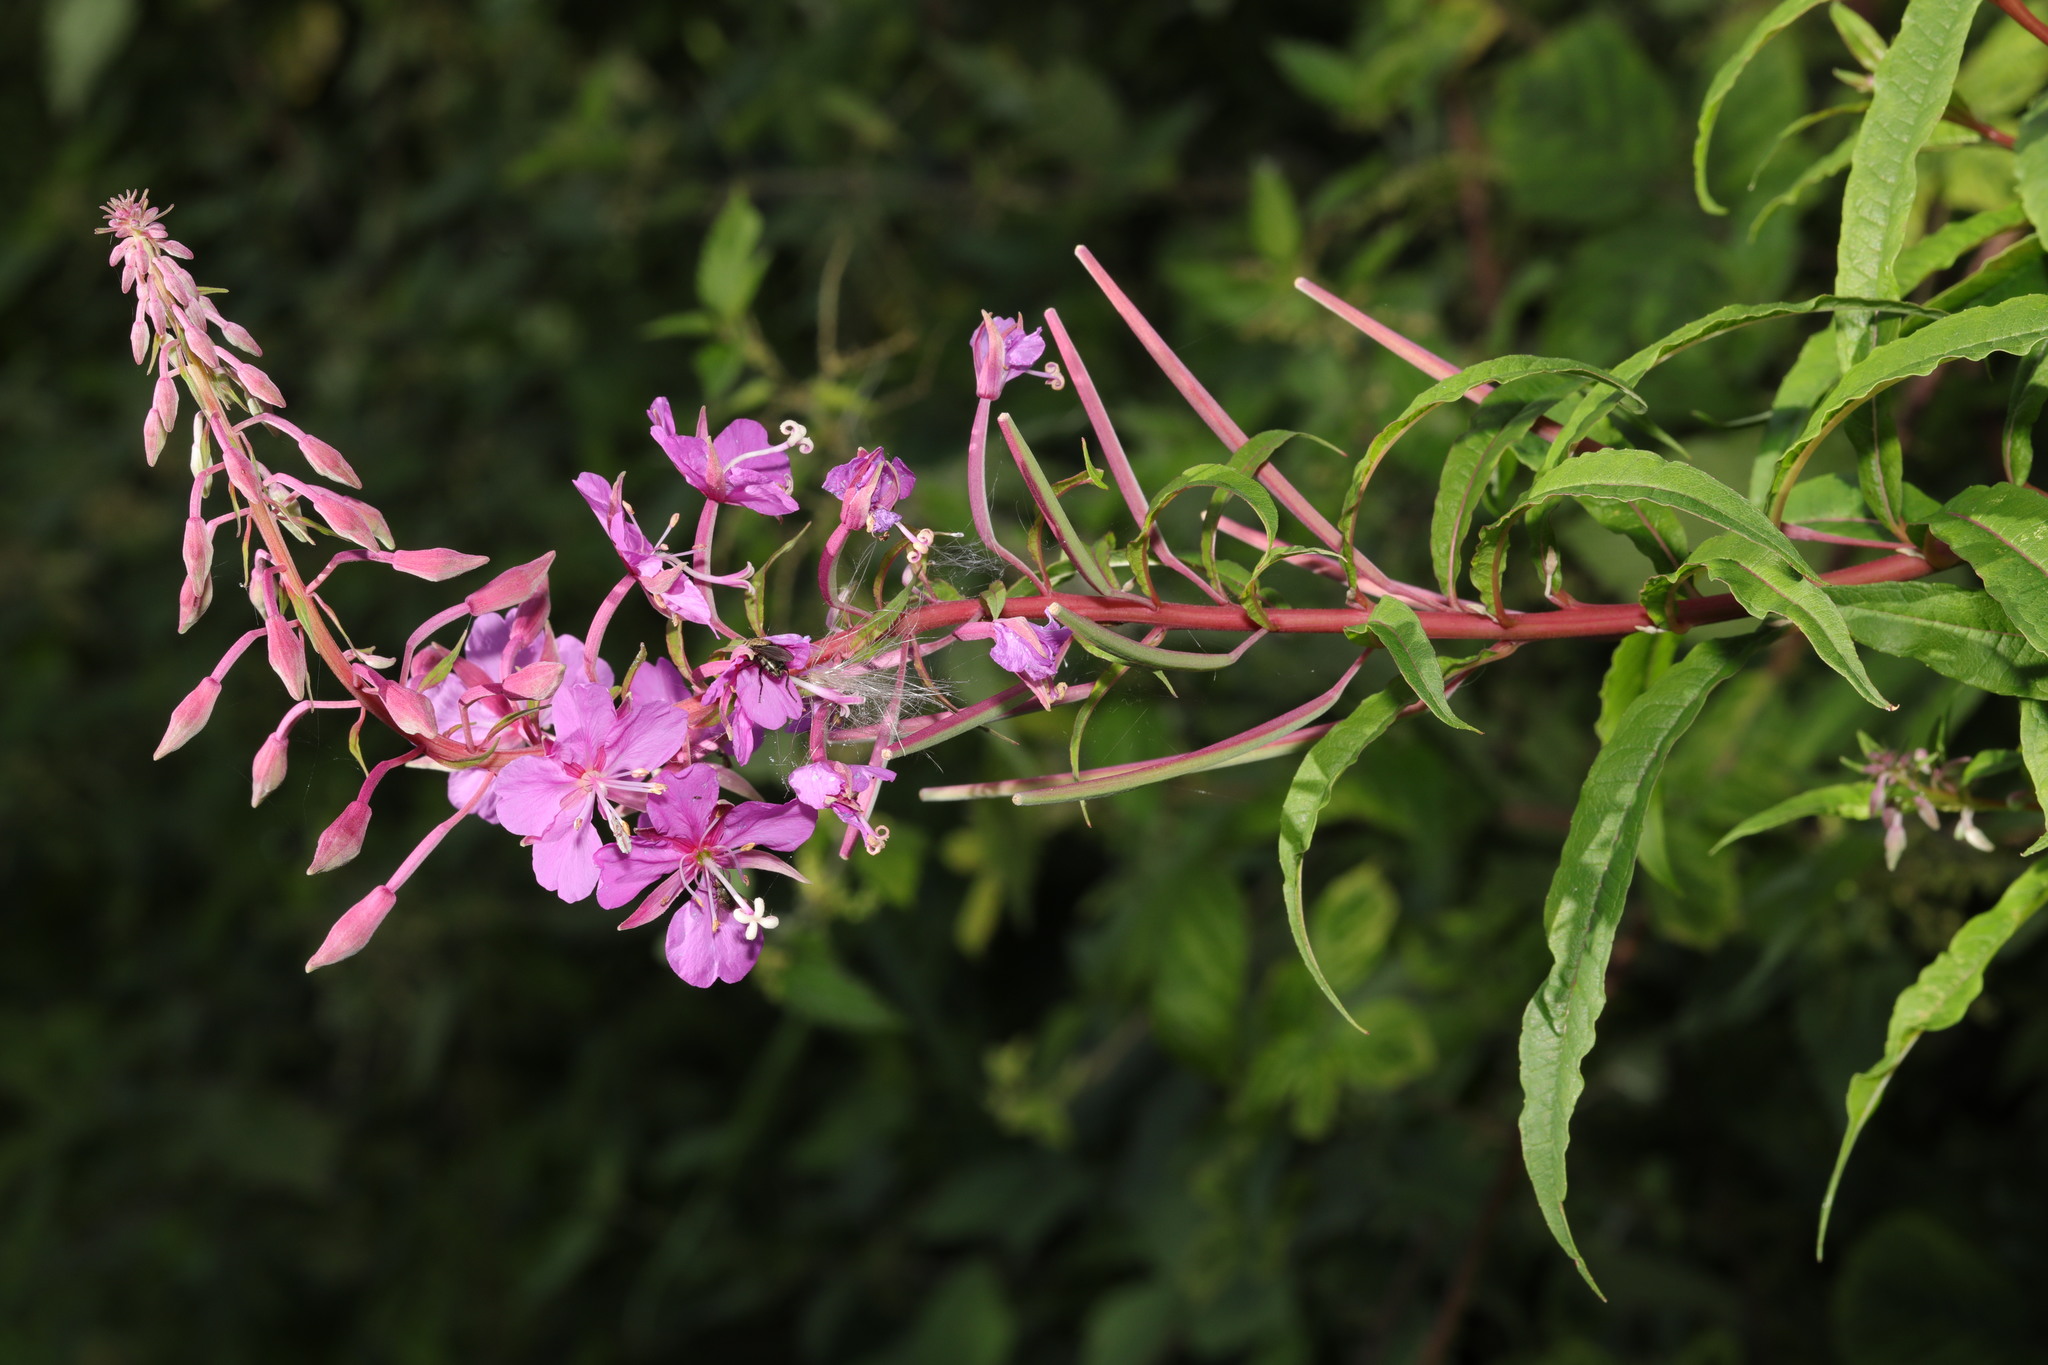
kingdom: Plantae
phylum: Tracheophyta
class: Magnoliopsida
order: Myrtales
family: Onagraceae
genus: Chamaenerion
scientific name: Chamaenerion angustifolium
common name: Fireweed
